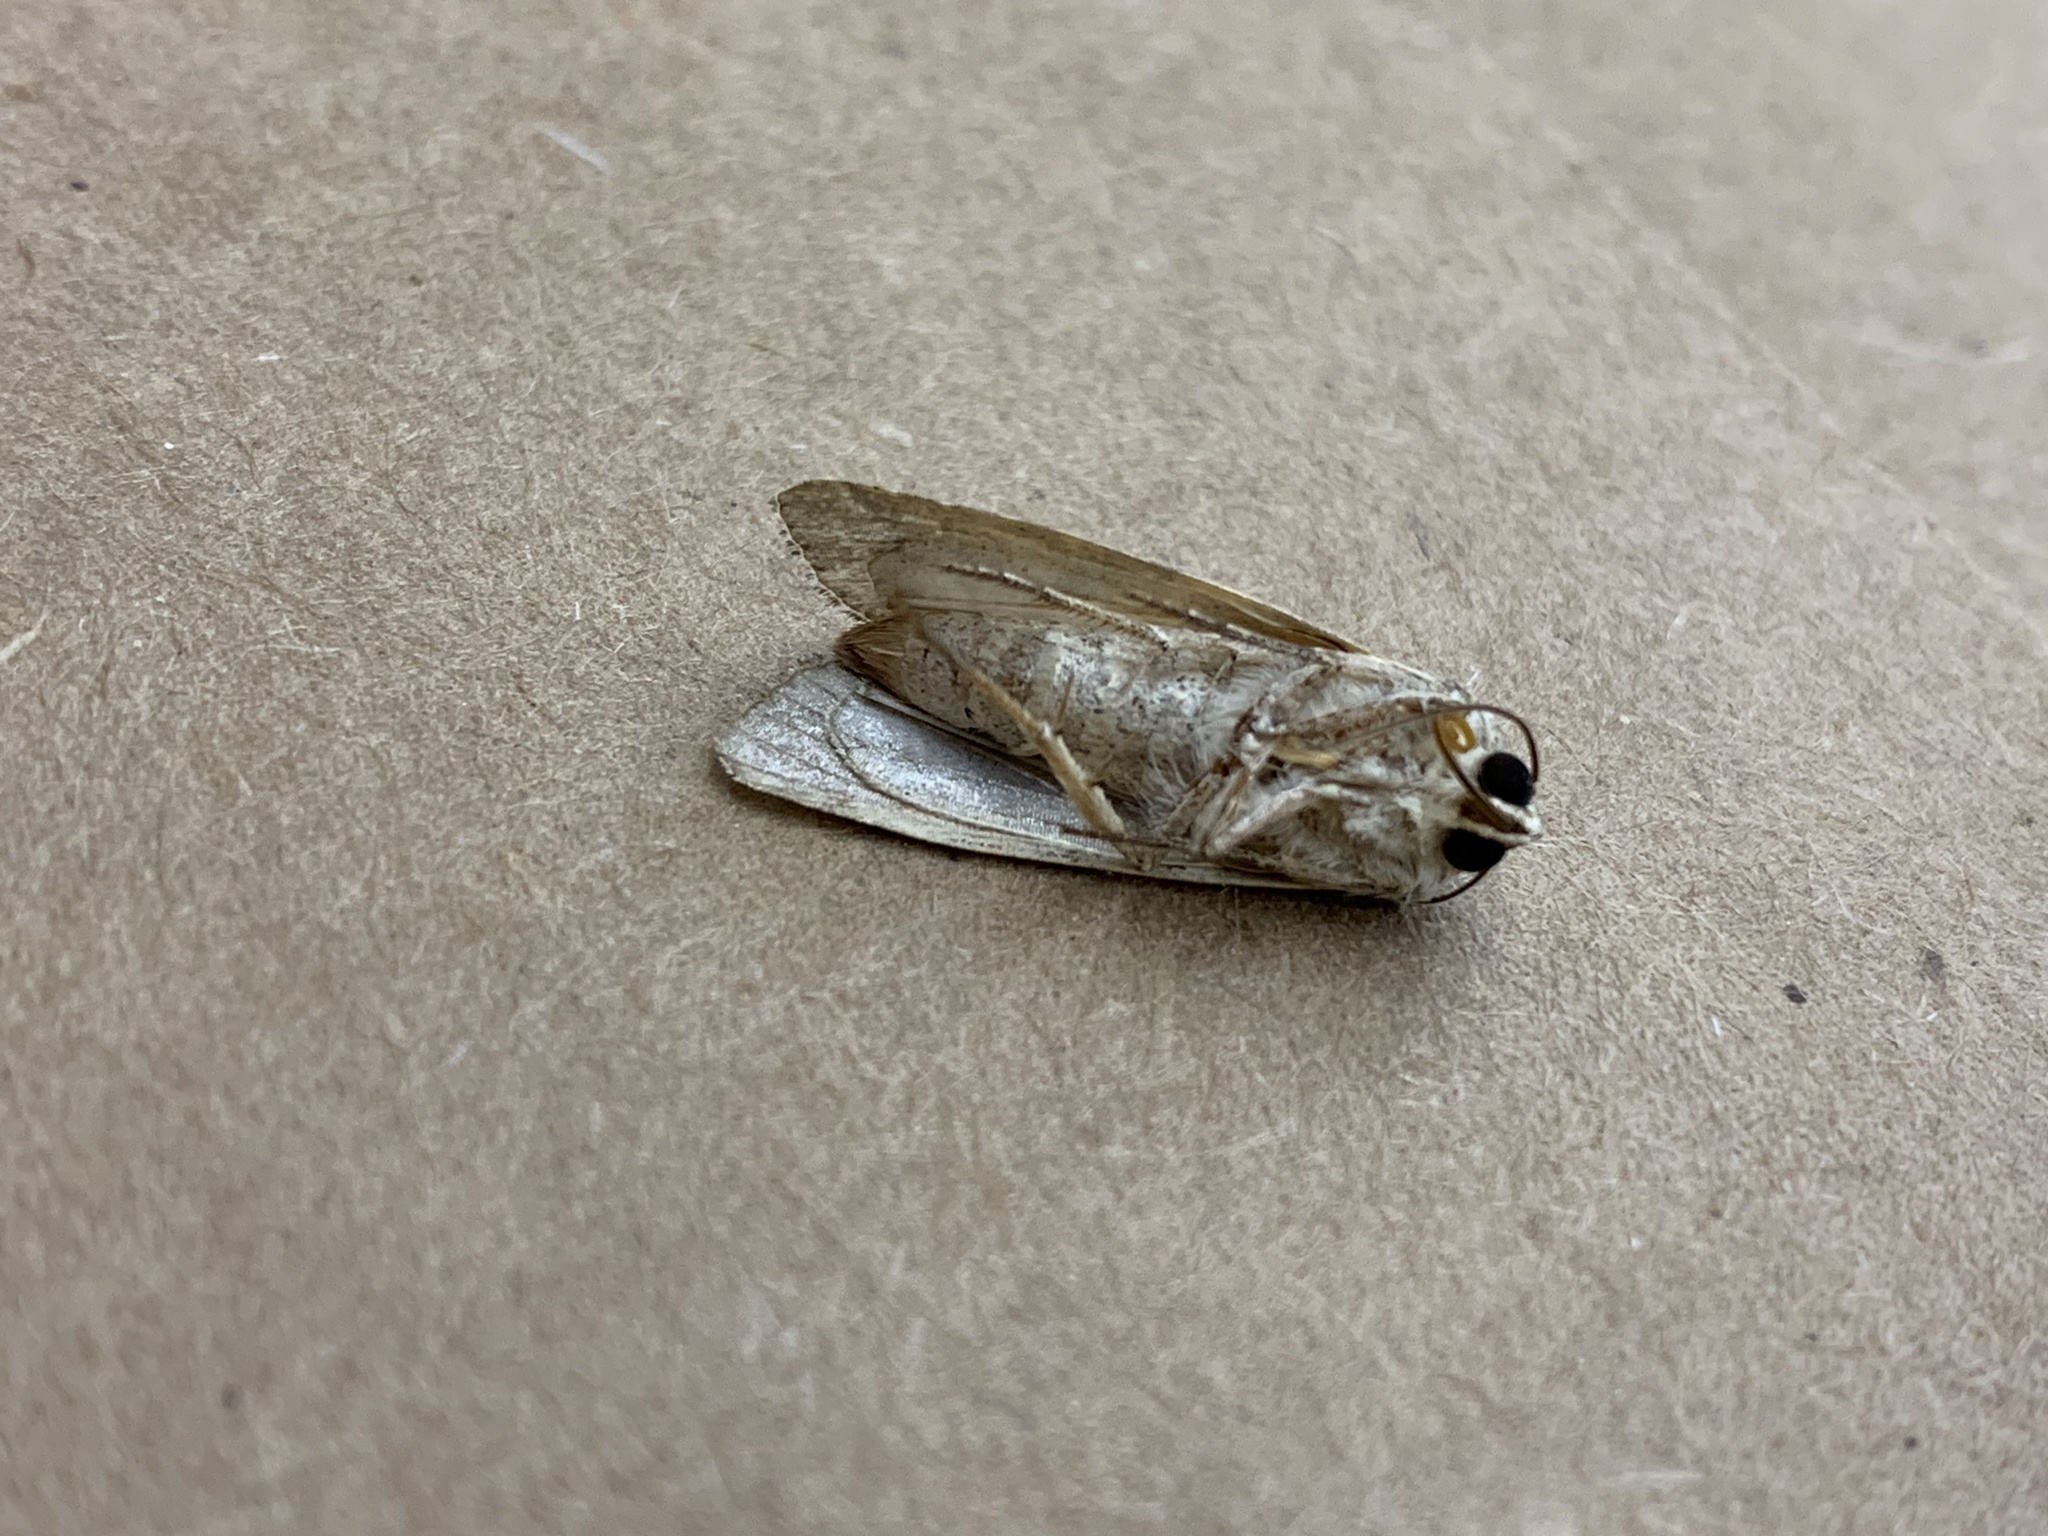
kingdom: Animalia
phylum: Arthropoda
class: Insecta
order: Lepidoptera
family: Noctuidae
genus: Spodoptera
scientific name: Spodoptera ornithogalli
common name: Yellow-striped armyworm
